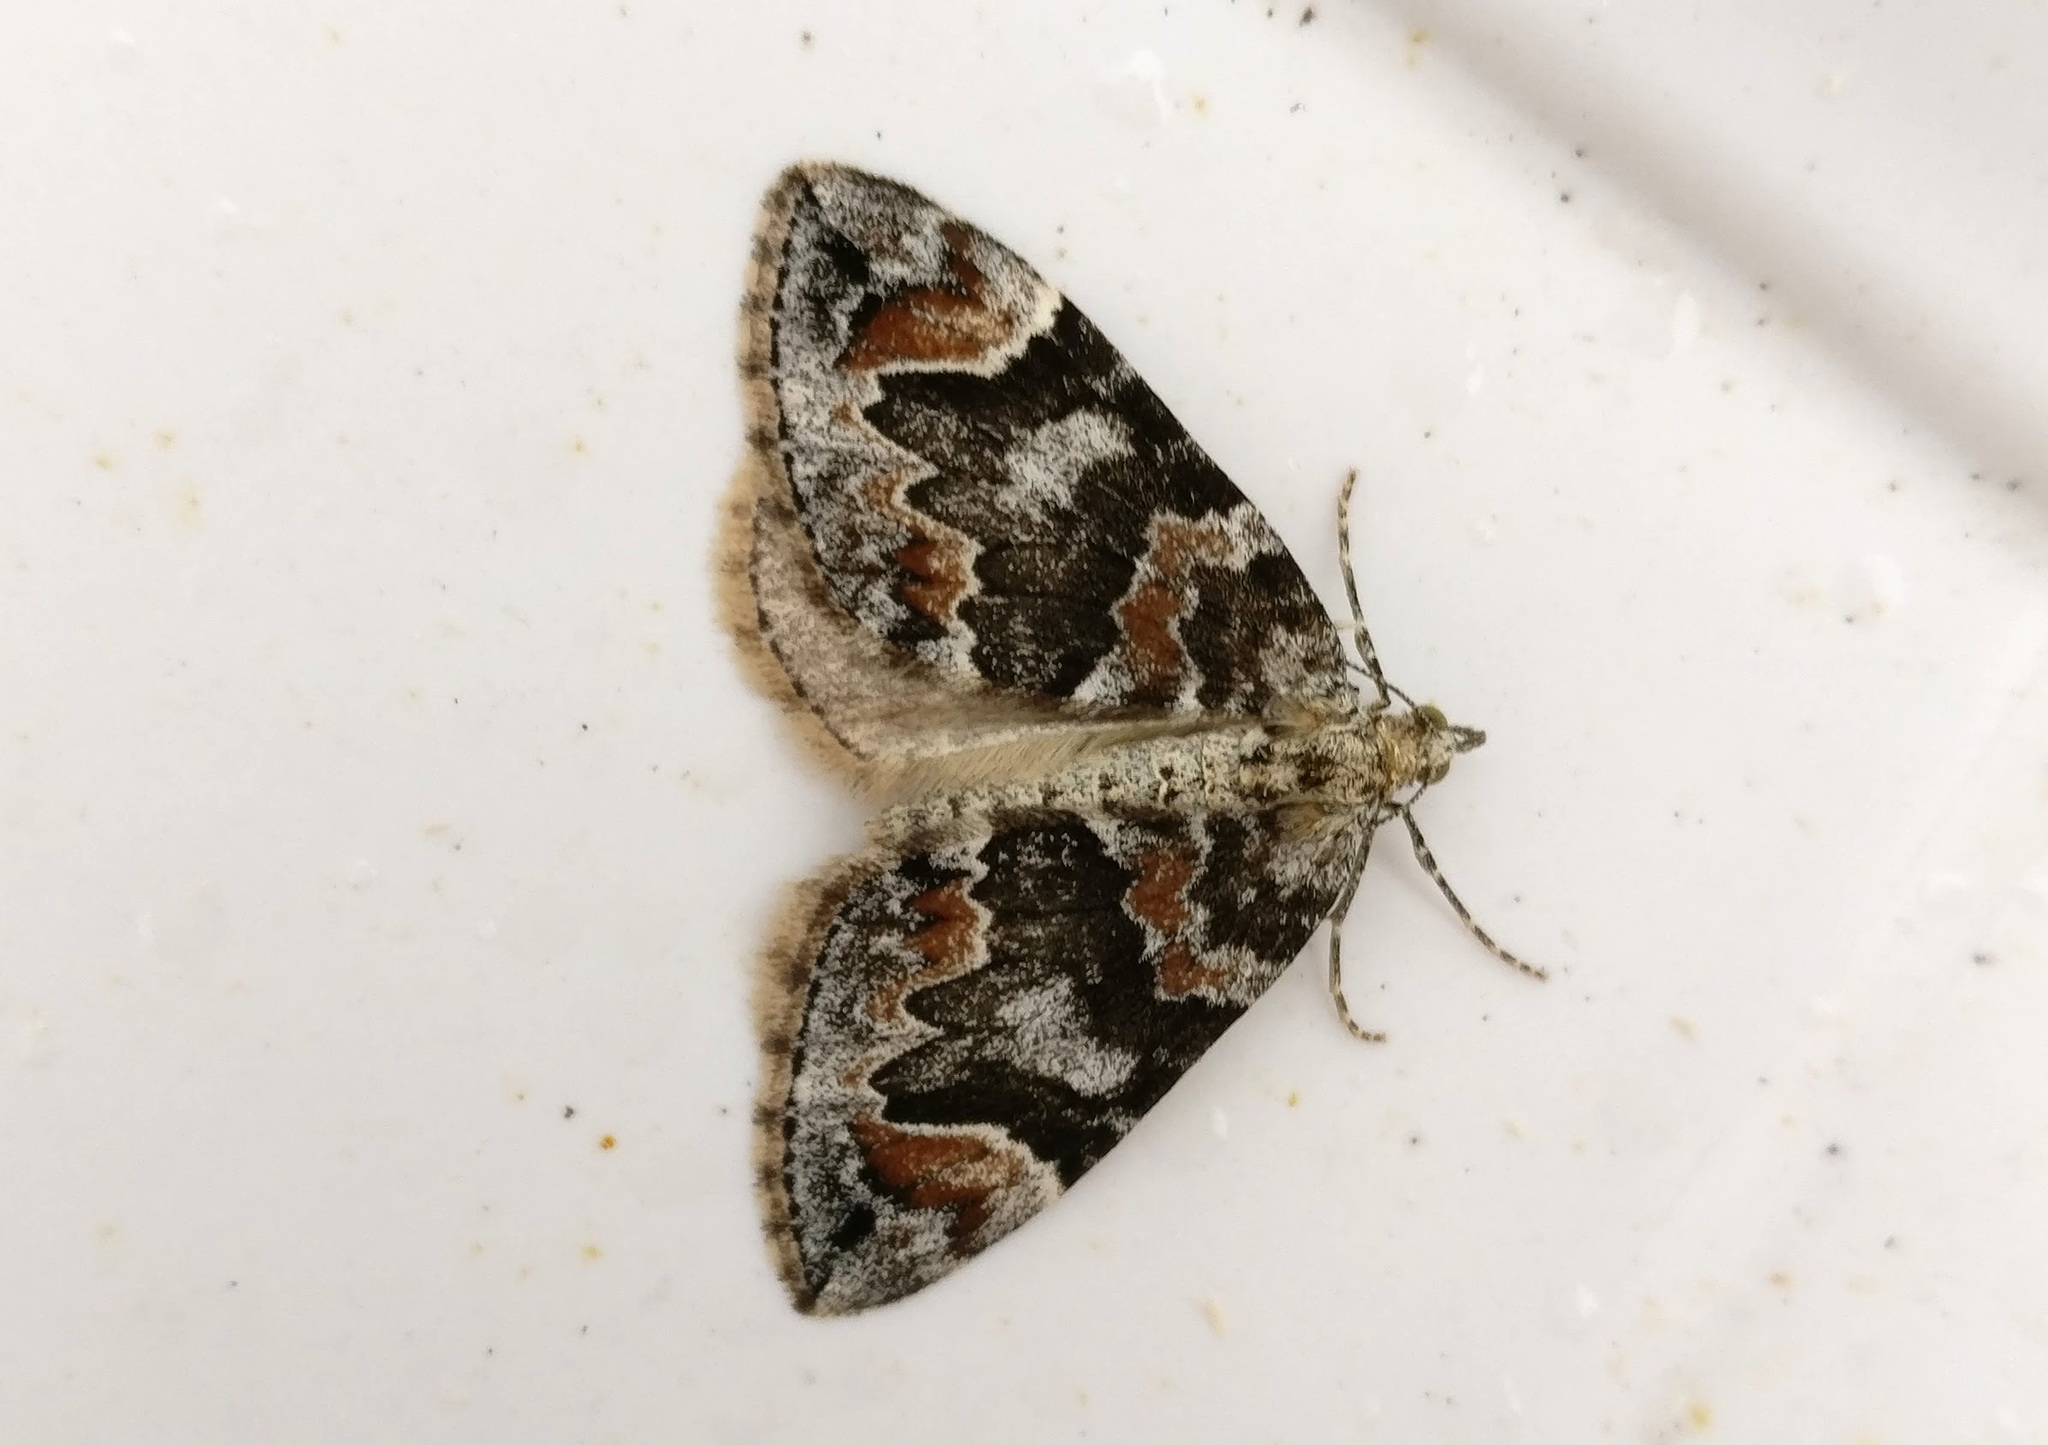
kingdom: Animalia
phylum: Arthropoda
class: Insecta
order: Lepidoptera
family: Geometridae
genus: Dysstroma
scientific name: Dysstroma citrata
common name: Dark marbled carpet
